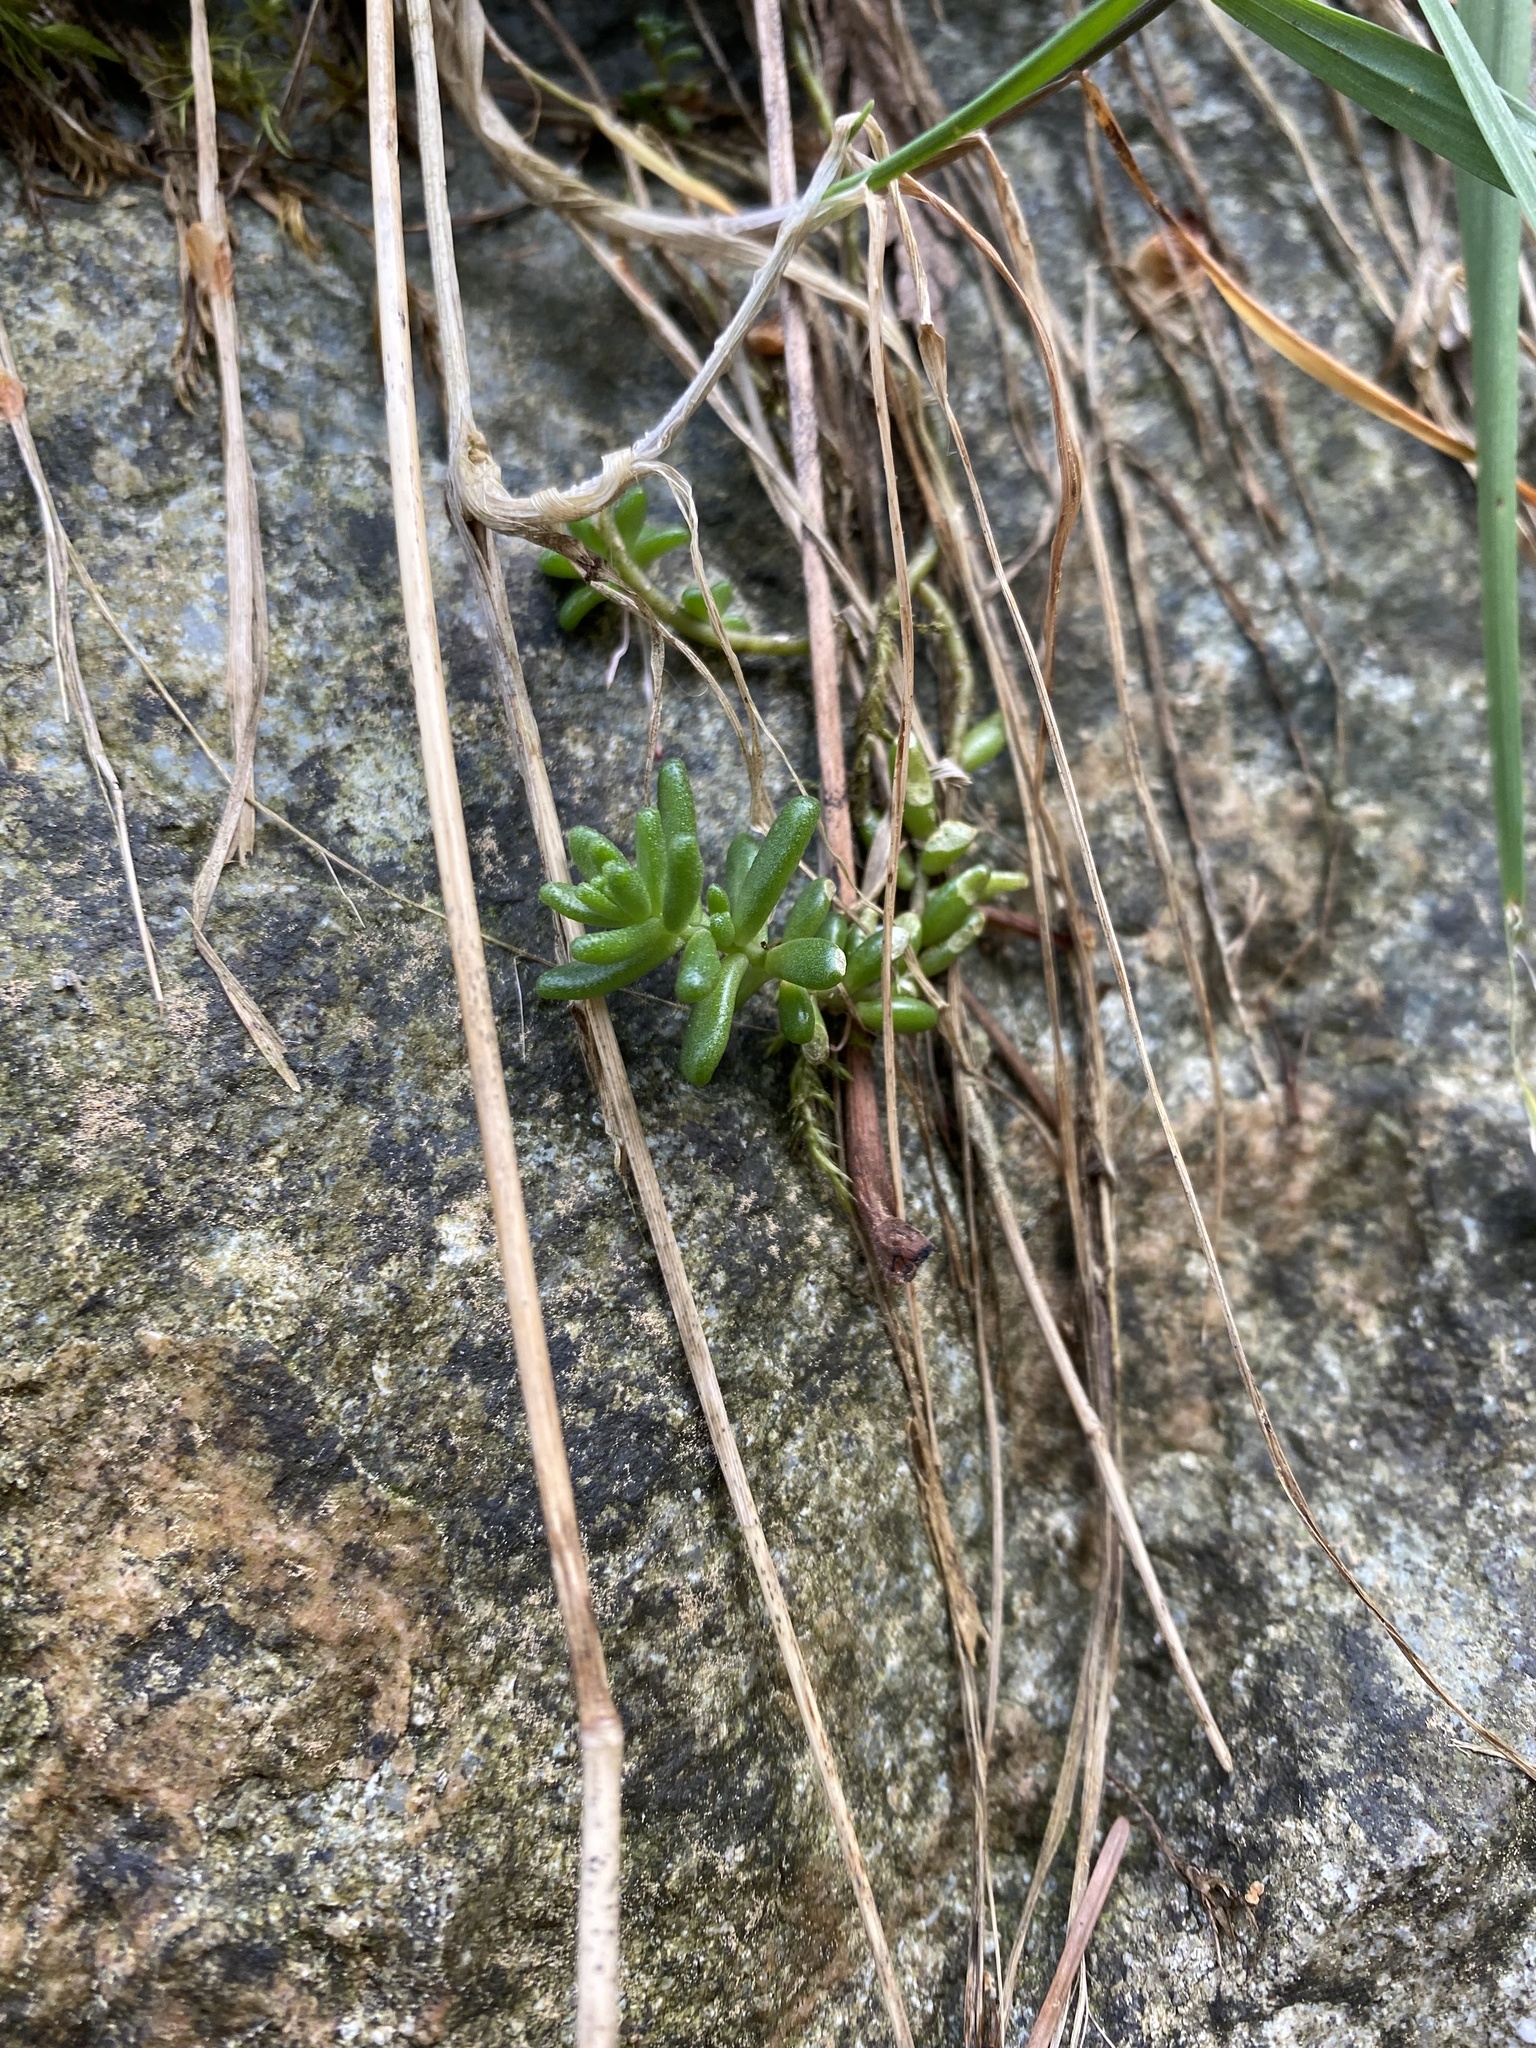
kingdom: Plantae
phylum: Tracheophyta
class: Magnoliopsida
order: Saxifragales
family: Crassulaceae
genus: Sedum
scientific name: Sedum album
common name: White stonecrop
